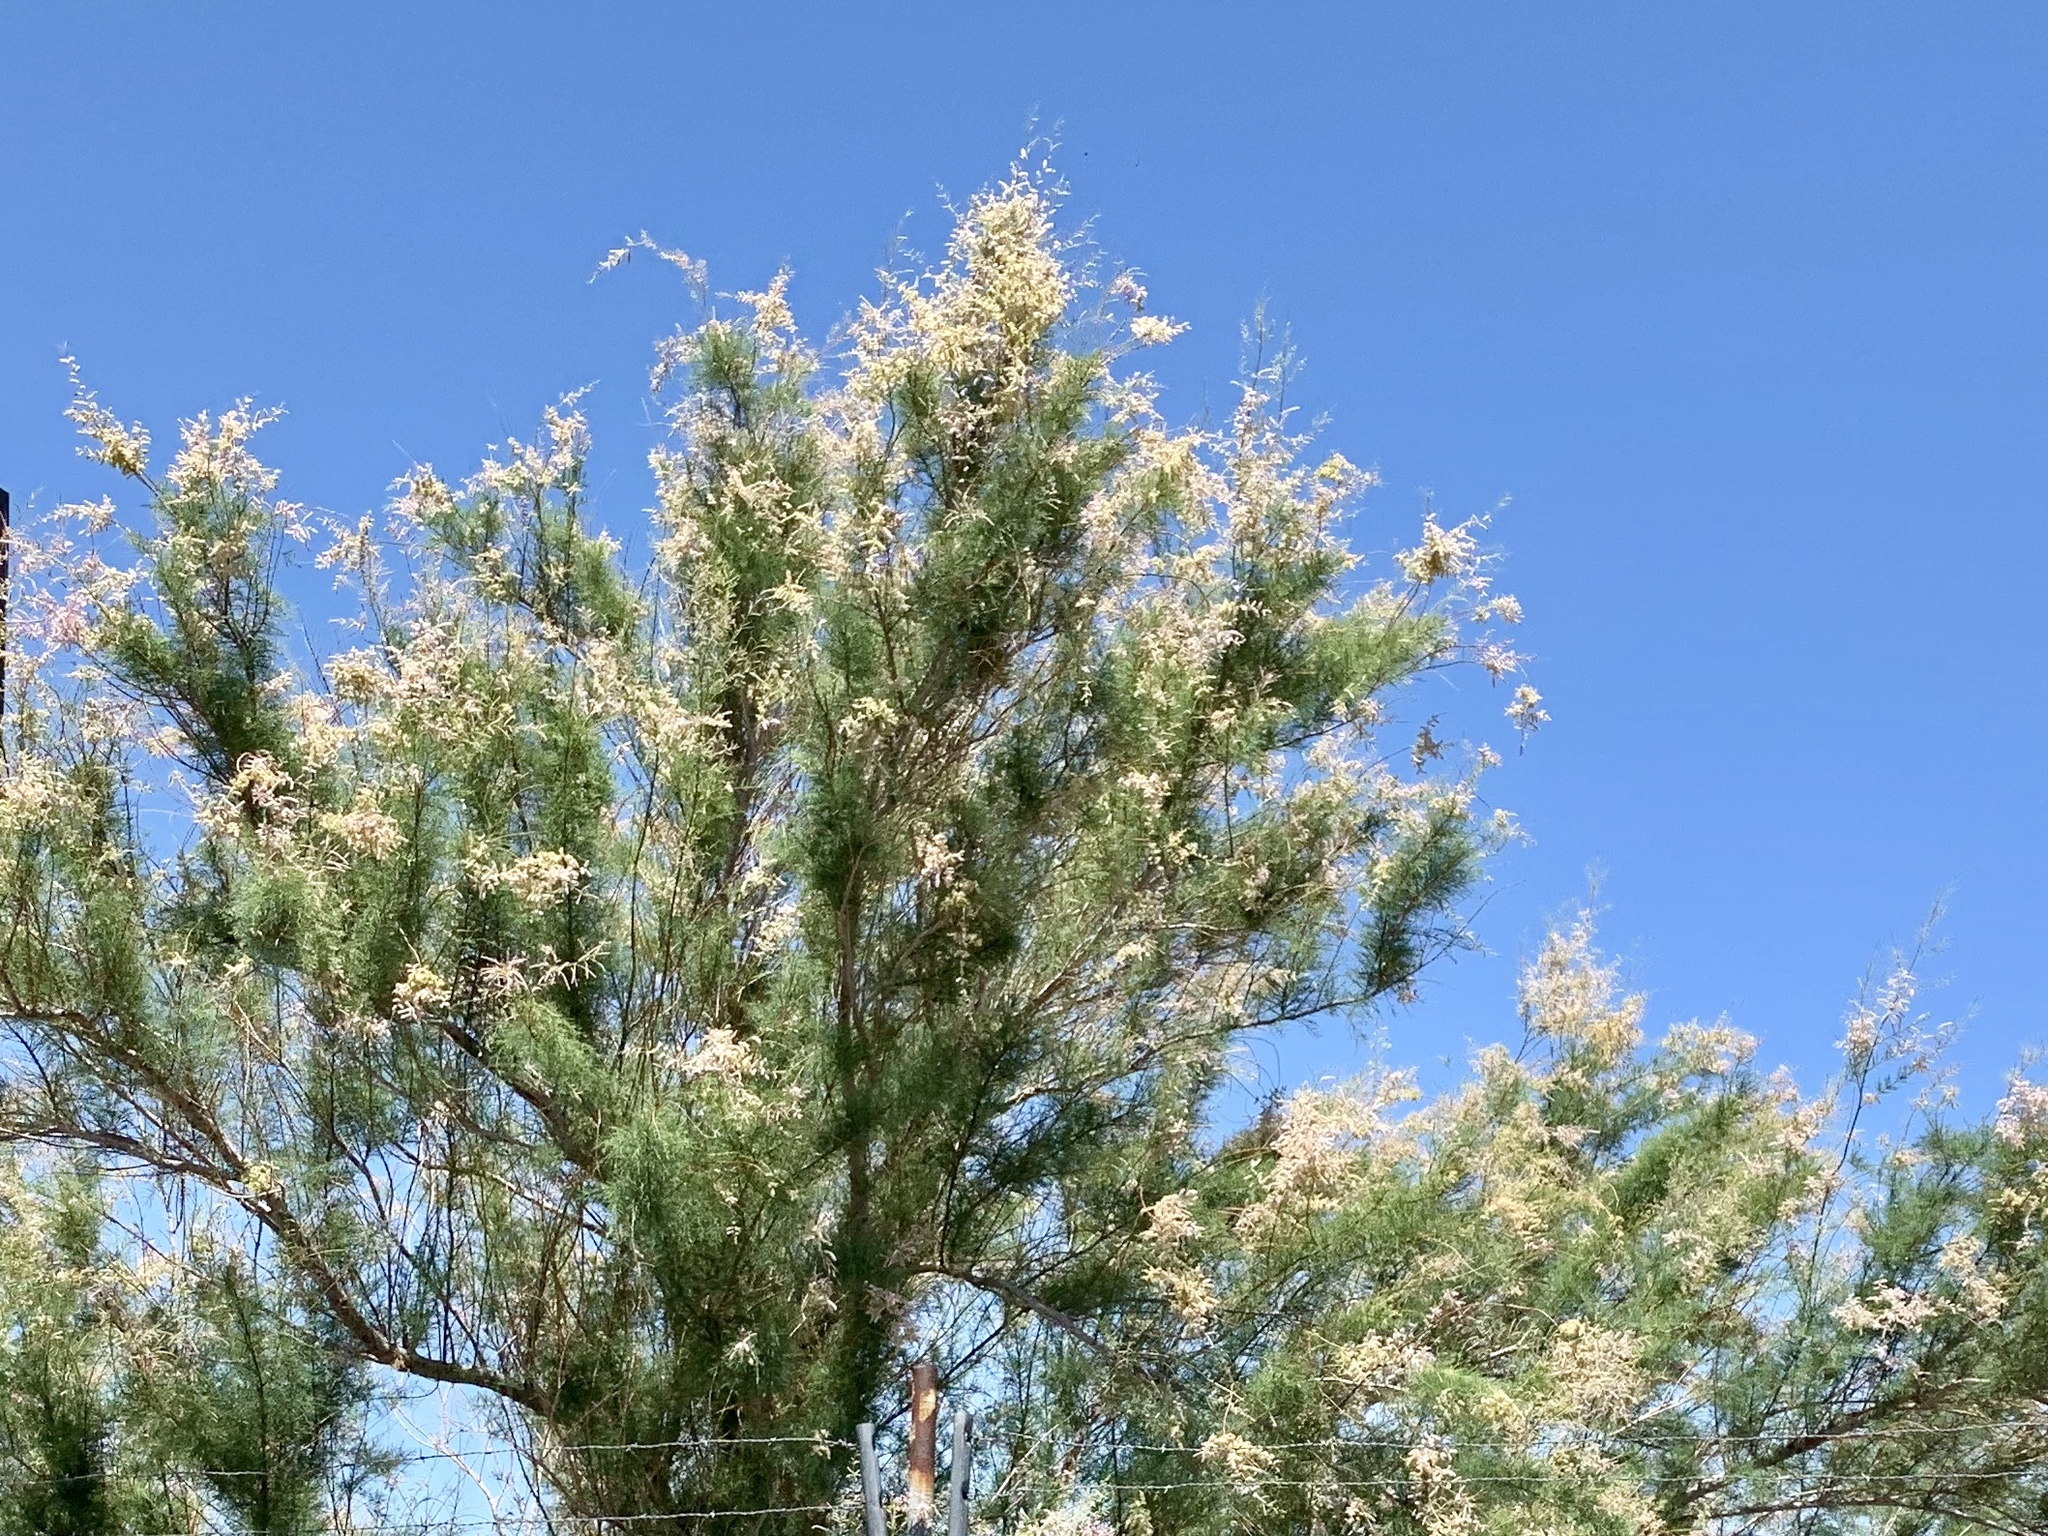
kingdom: Plantae
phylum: Tracheophyta
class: Magnoliopsida
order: Caryophyllales
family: Tamaricaceae
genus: Tamarix
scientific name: Tamarix
